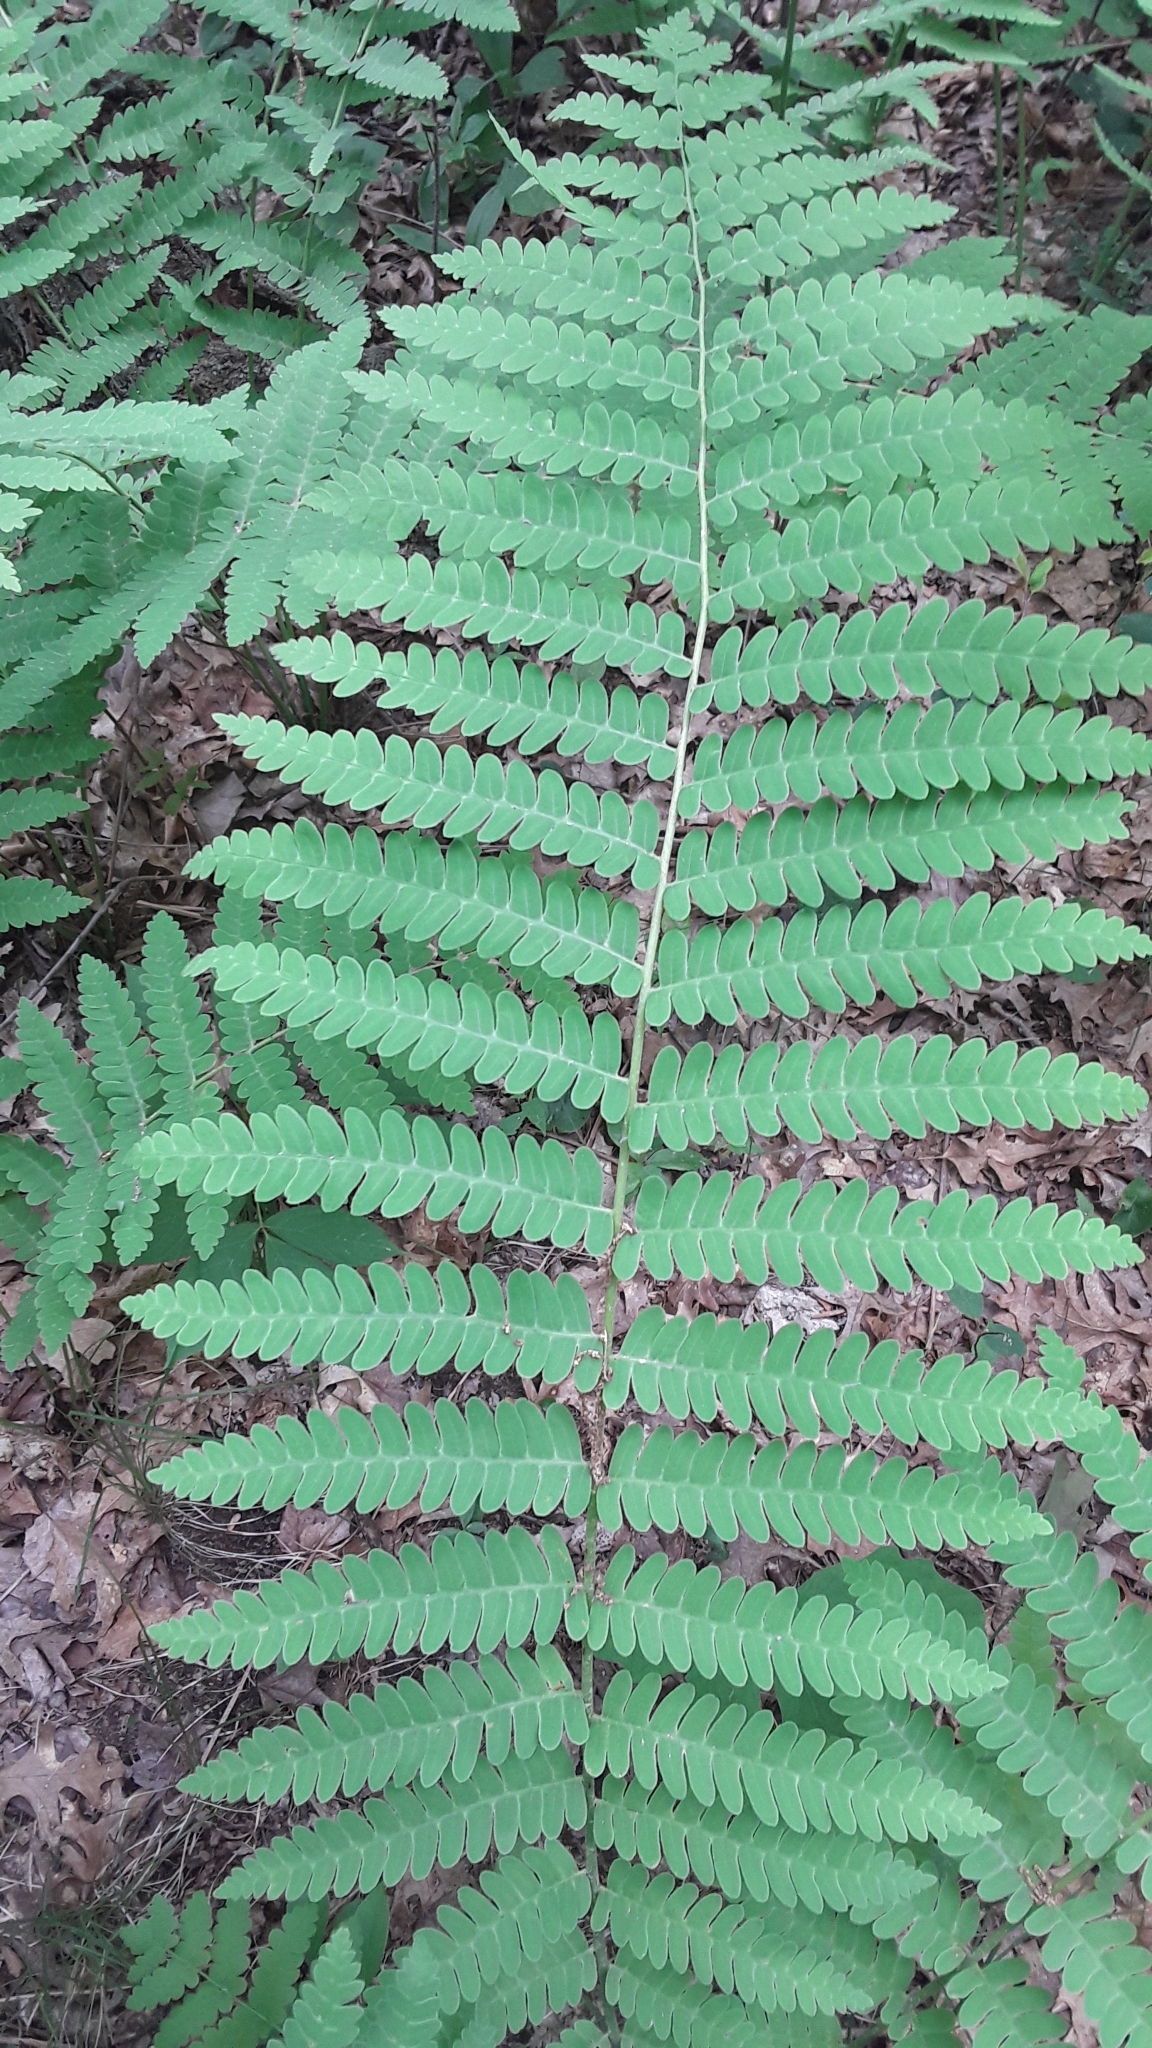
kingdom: Plantae
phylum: Tracheophyta
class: Polypodiopsida
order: Osmundales
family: Osmundaceae
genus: Claytosmunda
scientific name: Claytosmunda claytoniana
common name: Clayton's fern
